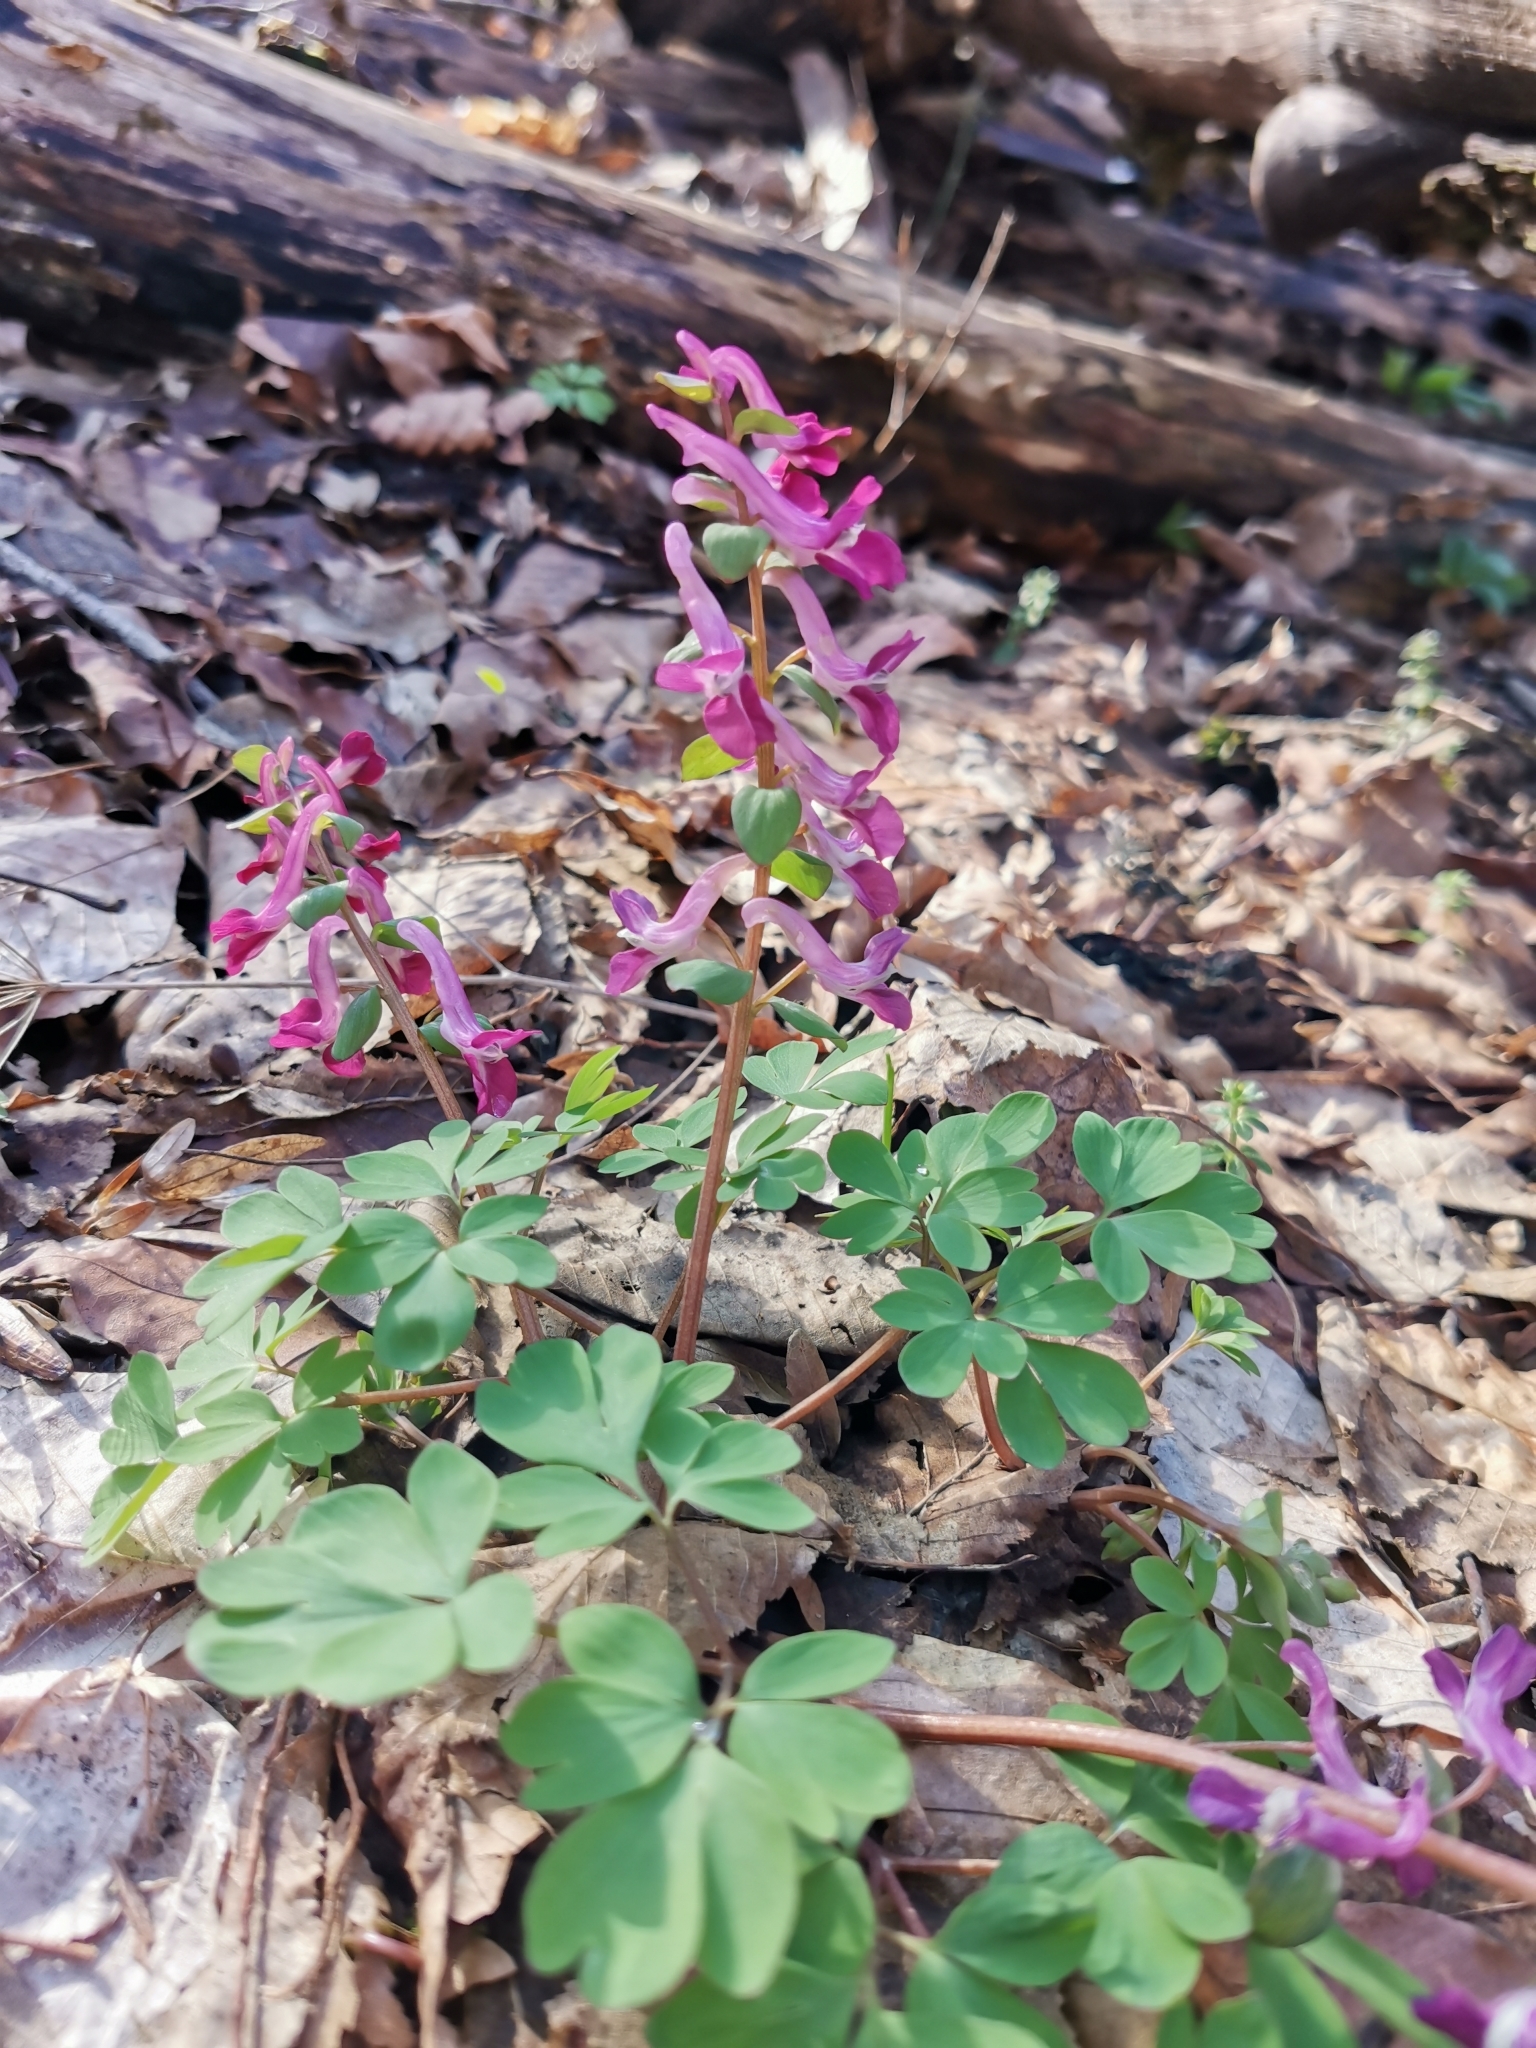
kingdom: Plantae
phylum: Tracheophyta
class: Magnoliopsida
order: Ranunculales
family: Papaveraceae
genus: Corydalis
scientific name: Corydalis caucasica
